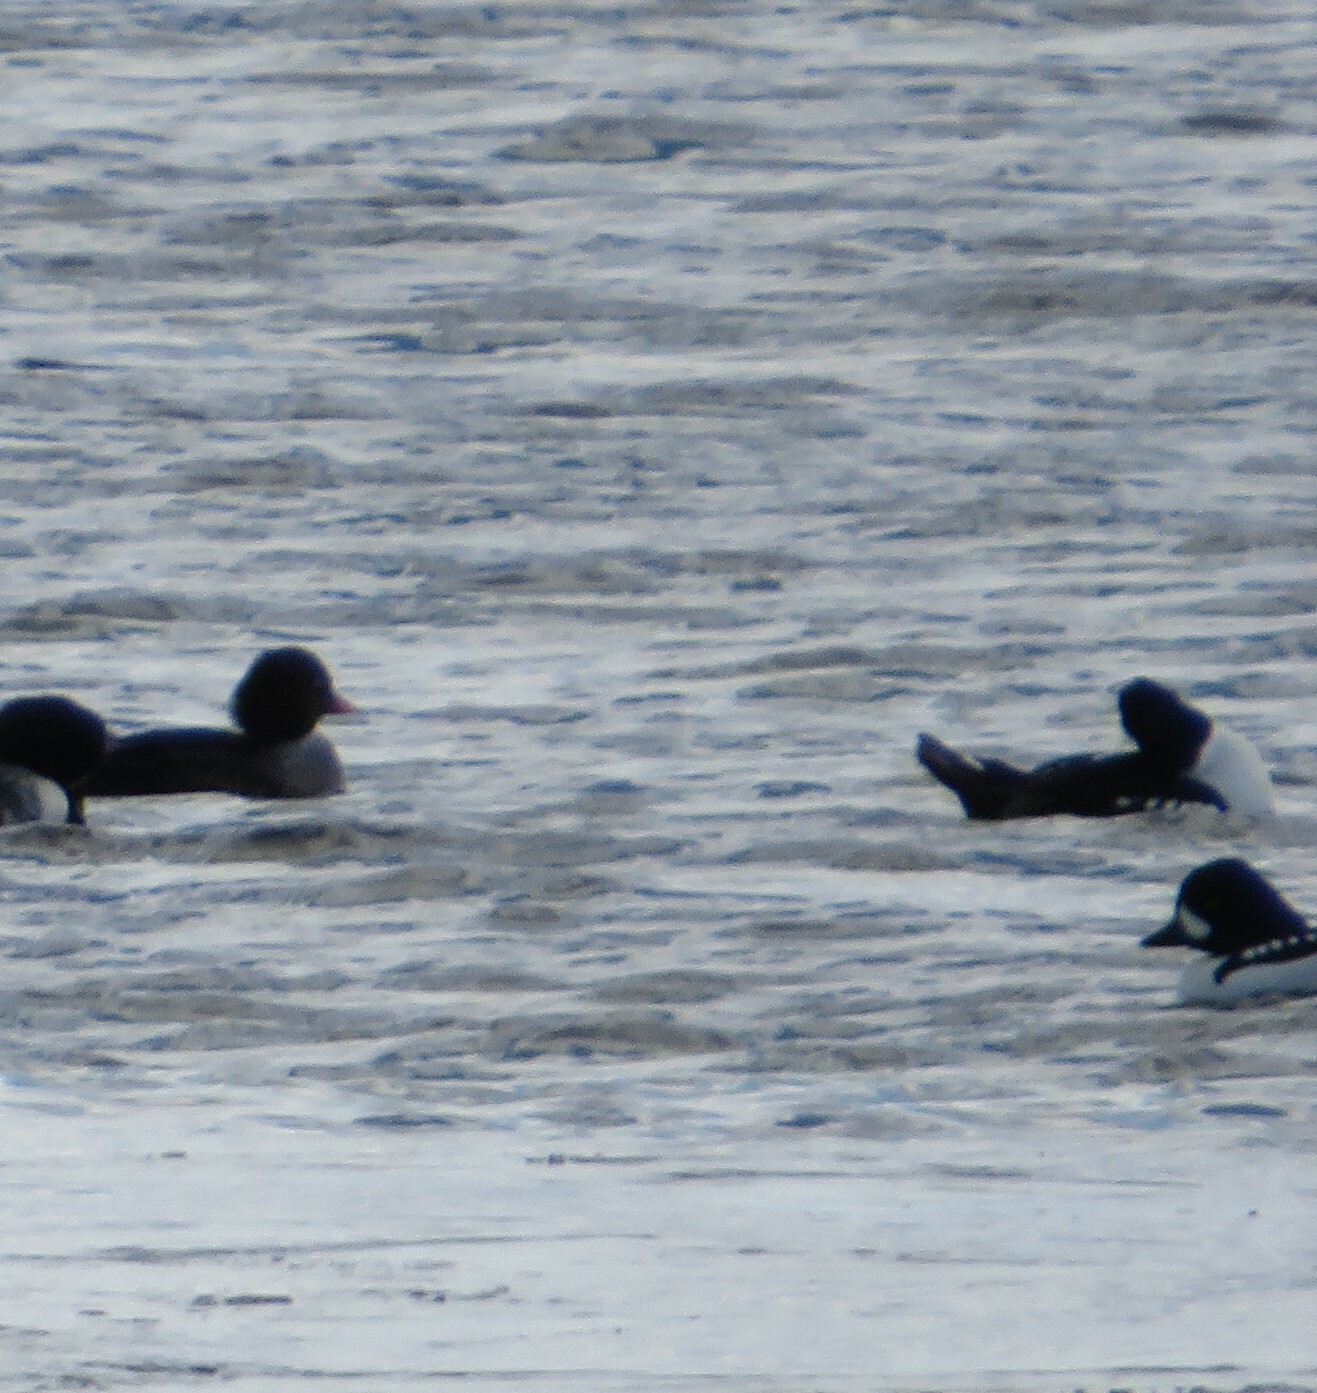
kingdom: Animalia
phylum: Chordata
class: Aves
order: Anseriformes
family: Anatidae
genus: Bucephala
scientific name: Bucephala islandica
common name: Barrow's goldeneye
